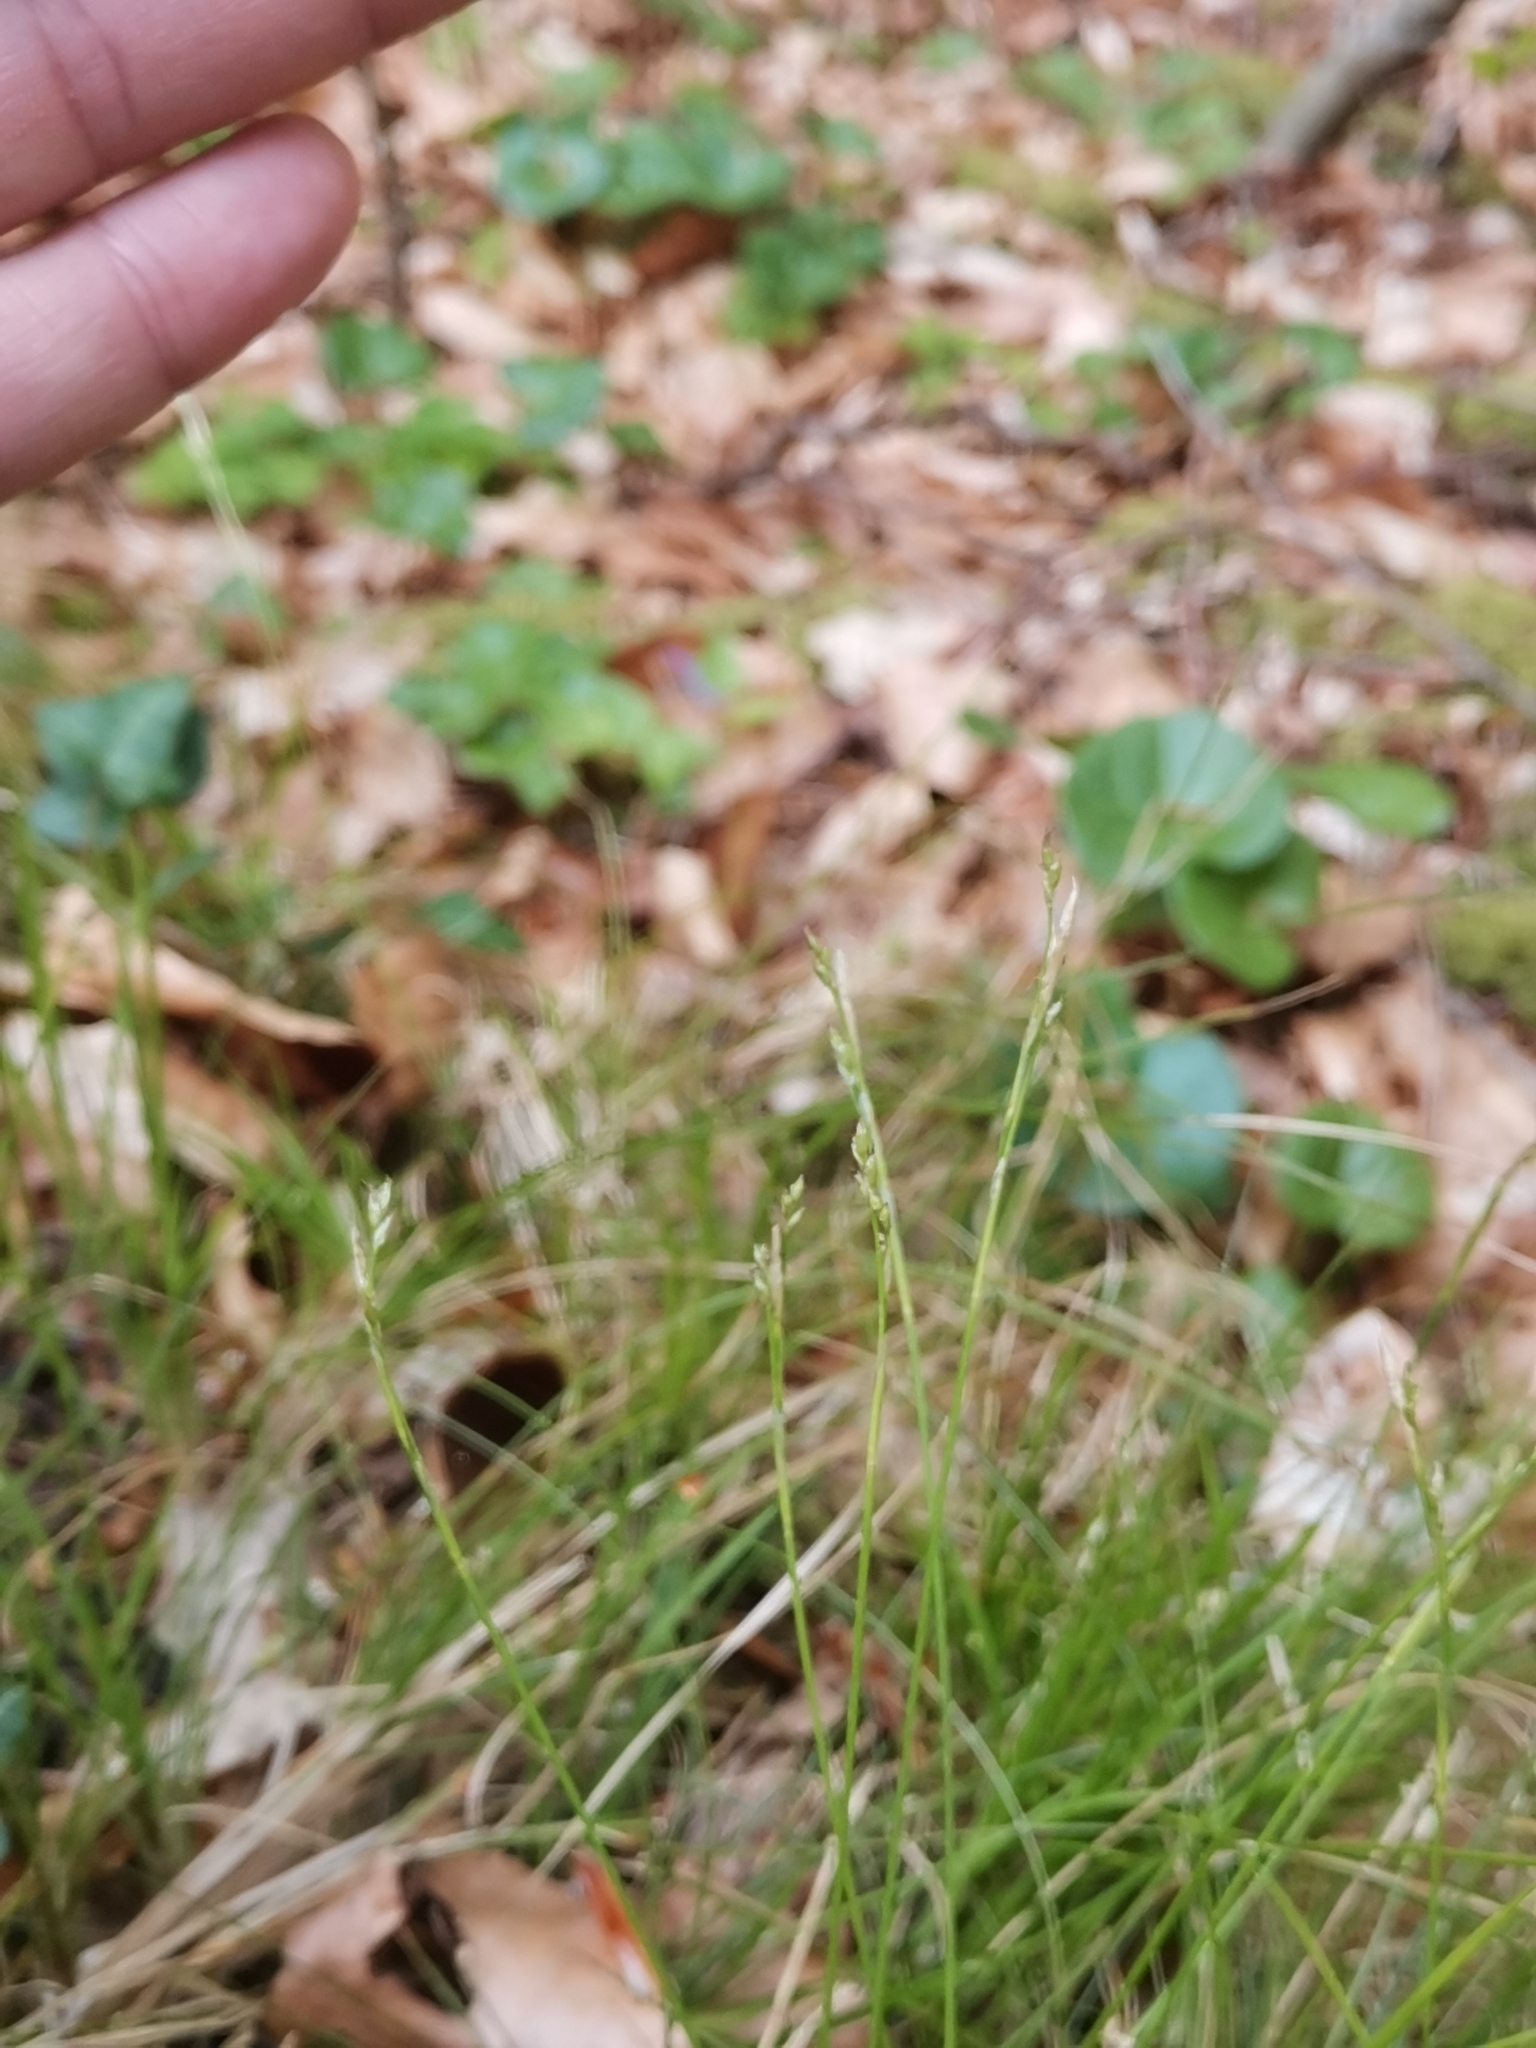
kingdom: Plantae
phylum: Tracheophyta
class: Liliopsida
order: Poales
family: Cyperaceae
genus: Carex
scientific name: Carex alba
